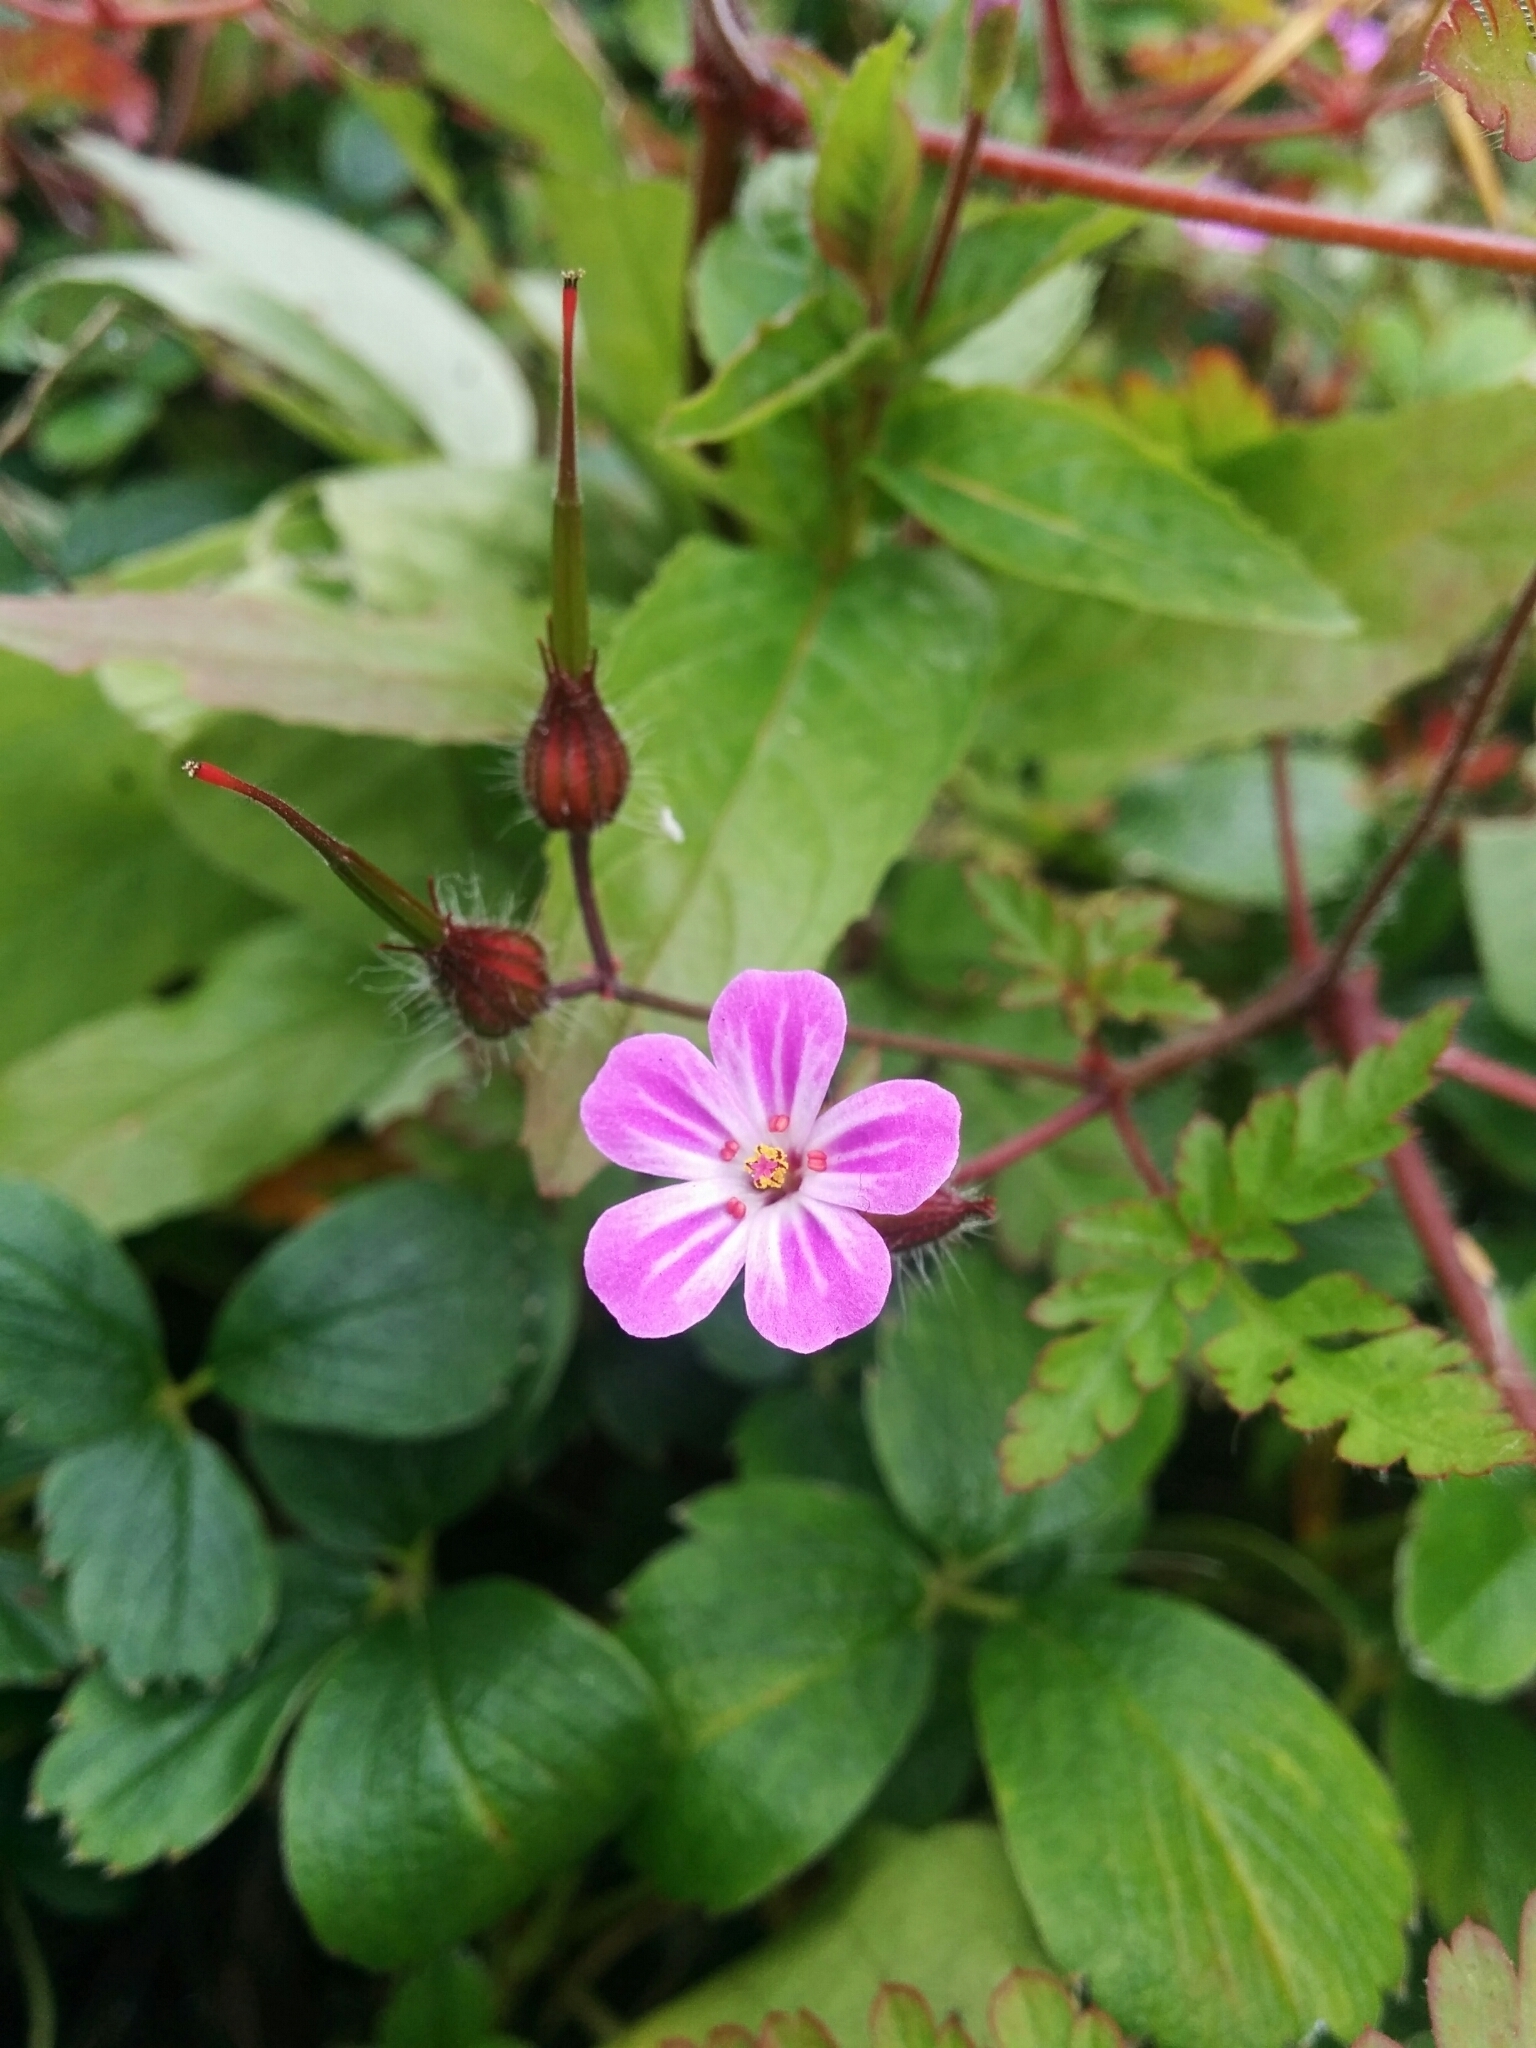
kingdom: Plantae
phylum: Tracheophyta
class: Magnoliopsida
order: Geraniales
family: Geraniaceae
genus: Geranium
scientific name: Geranium robertianum
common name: Herb-robert
